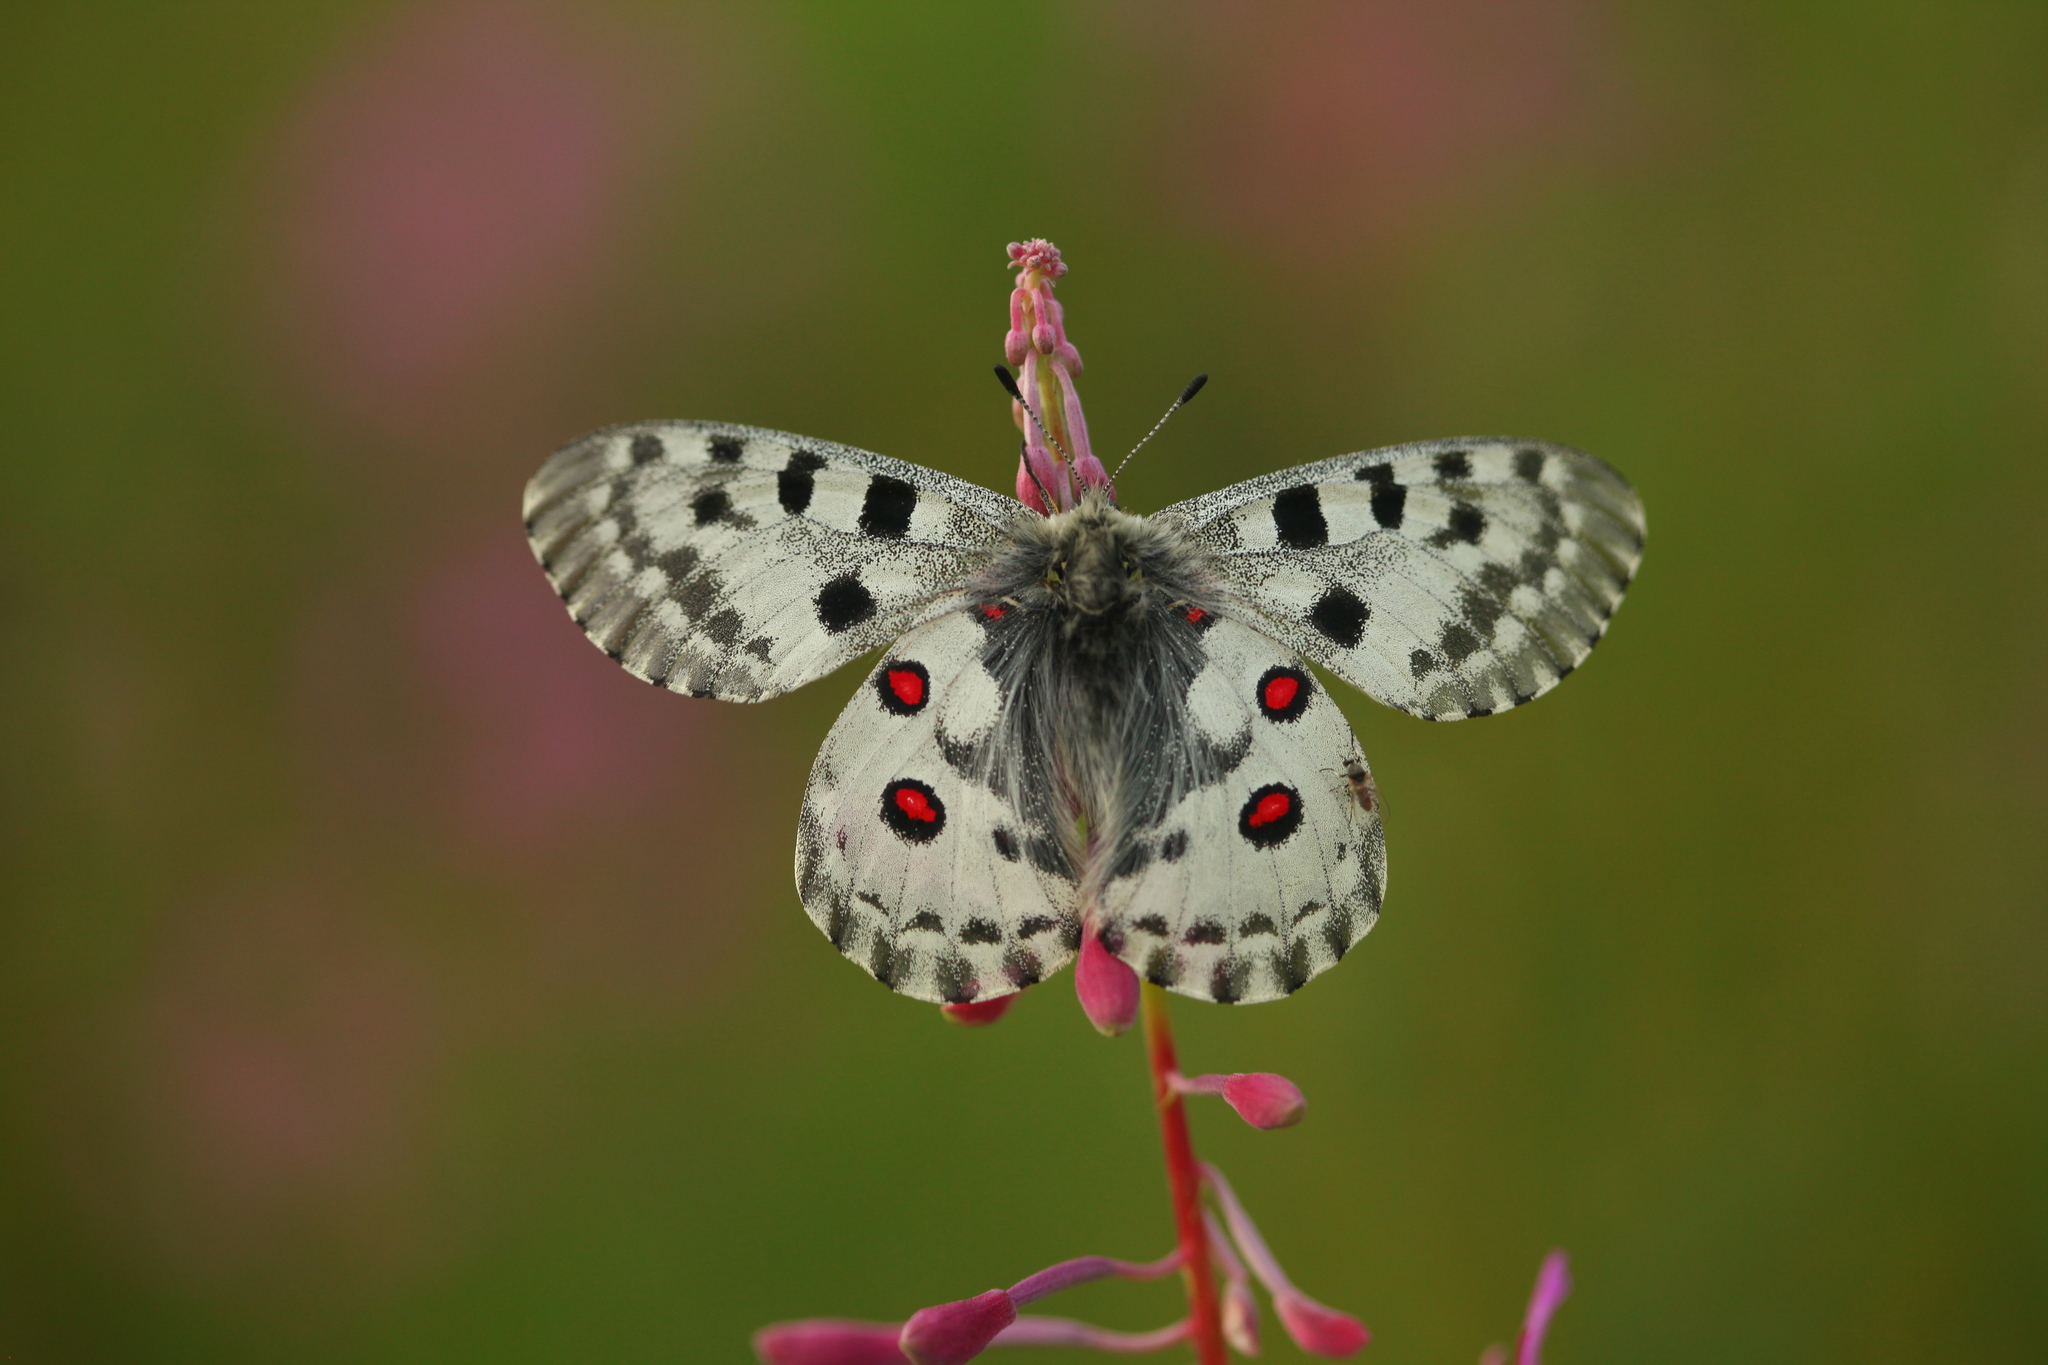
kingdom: Animalia
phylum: Arthropoda
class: Insecta
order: Lepidoptera
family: Papilionidae
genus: Parnassius
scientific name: Parnassius nomion
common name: Nomion apollo
